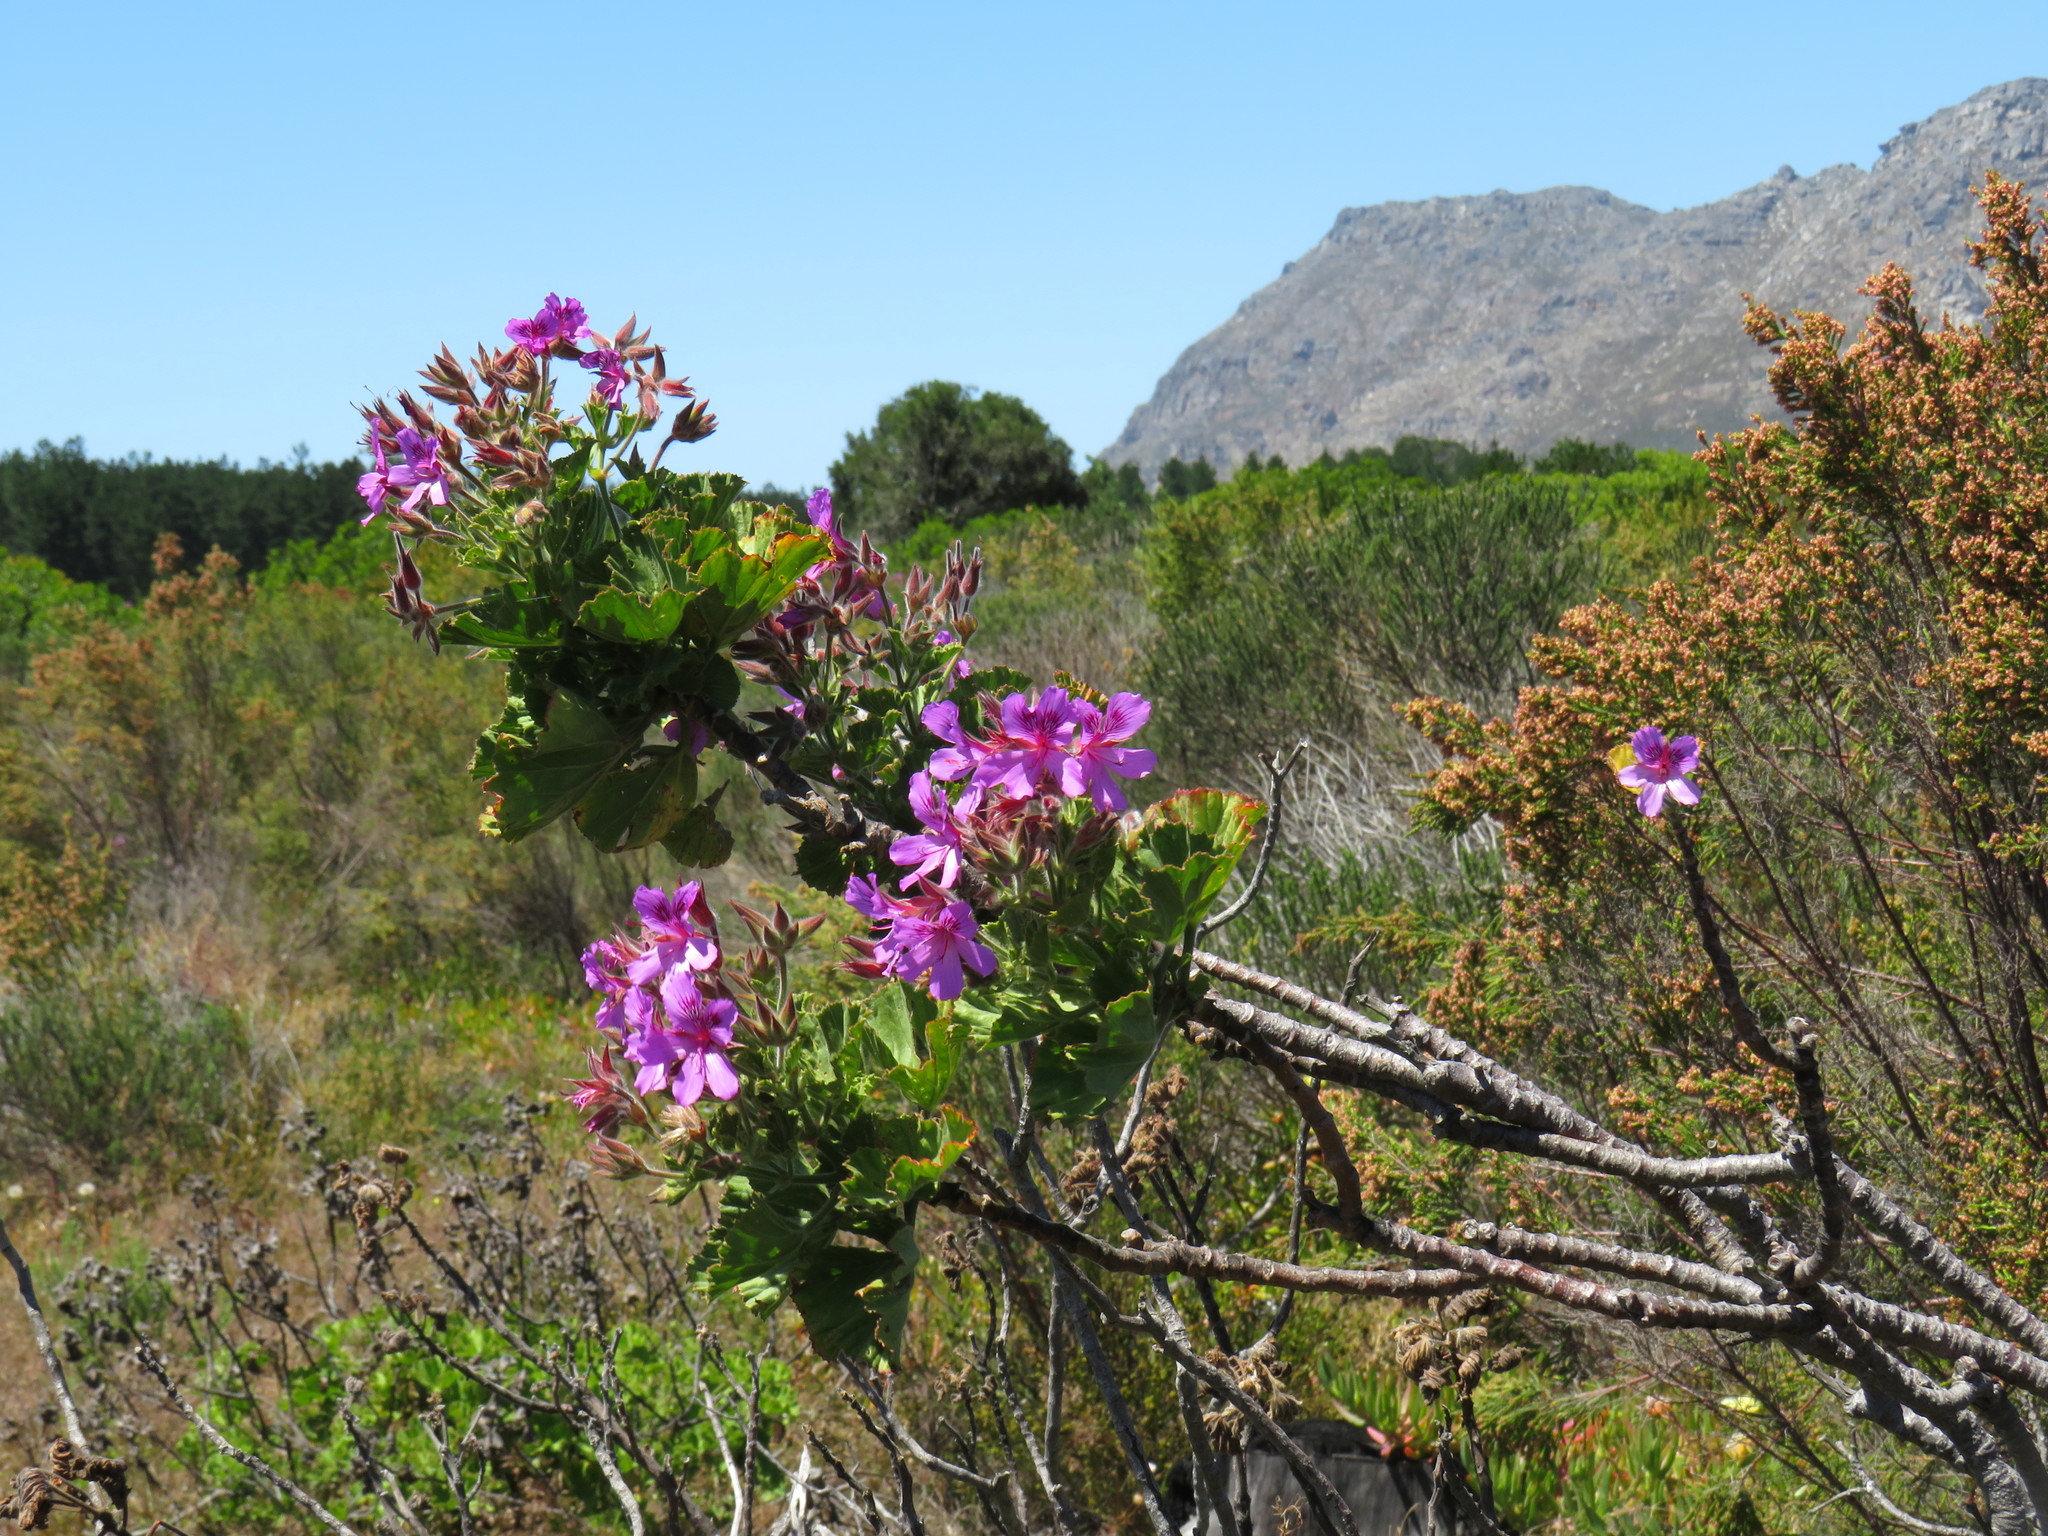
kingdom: Plantae
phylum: Tracheophyta
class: Magnoliopsida
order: Geraniales
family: Geraniaceae
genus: Pelargonium
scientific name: Pelargonium cucullatum
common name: Tree pelargonium
